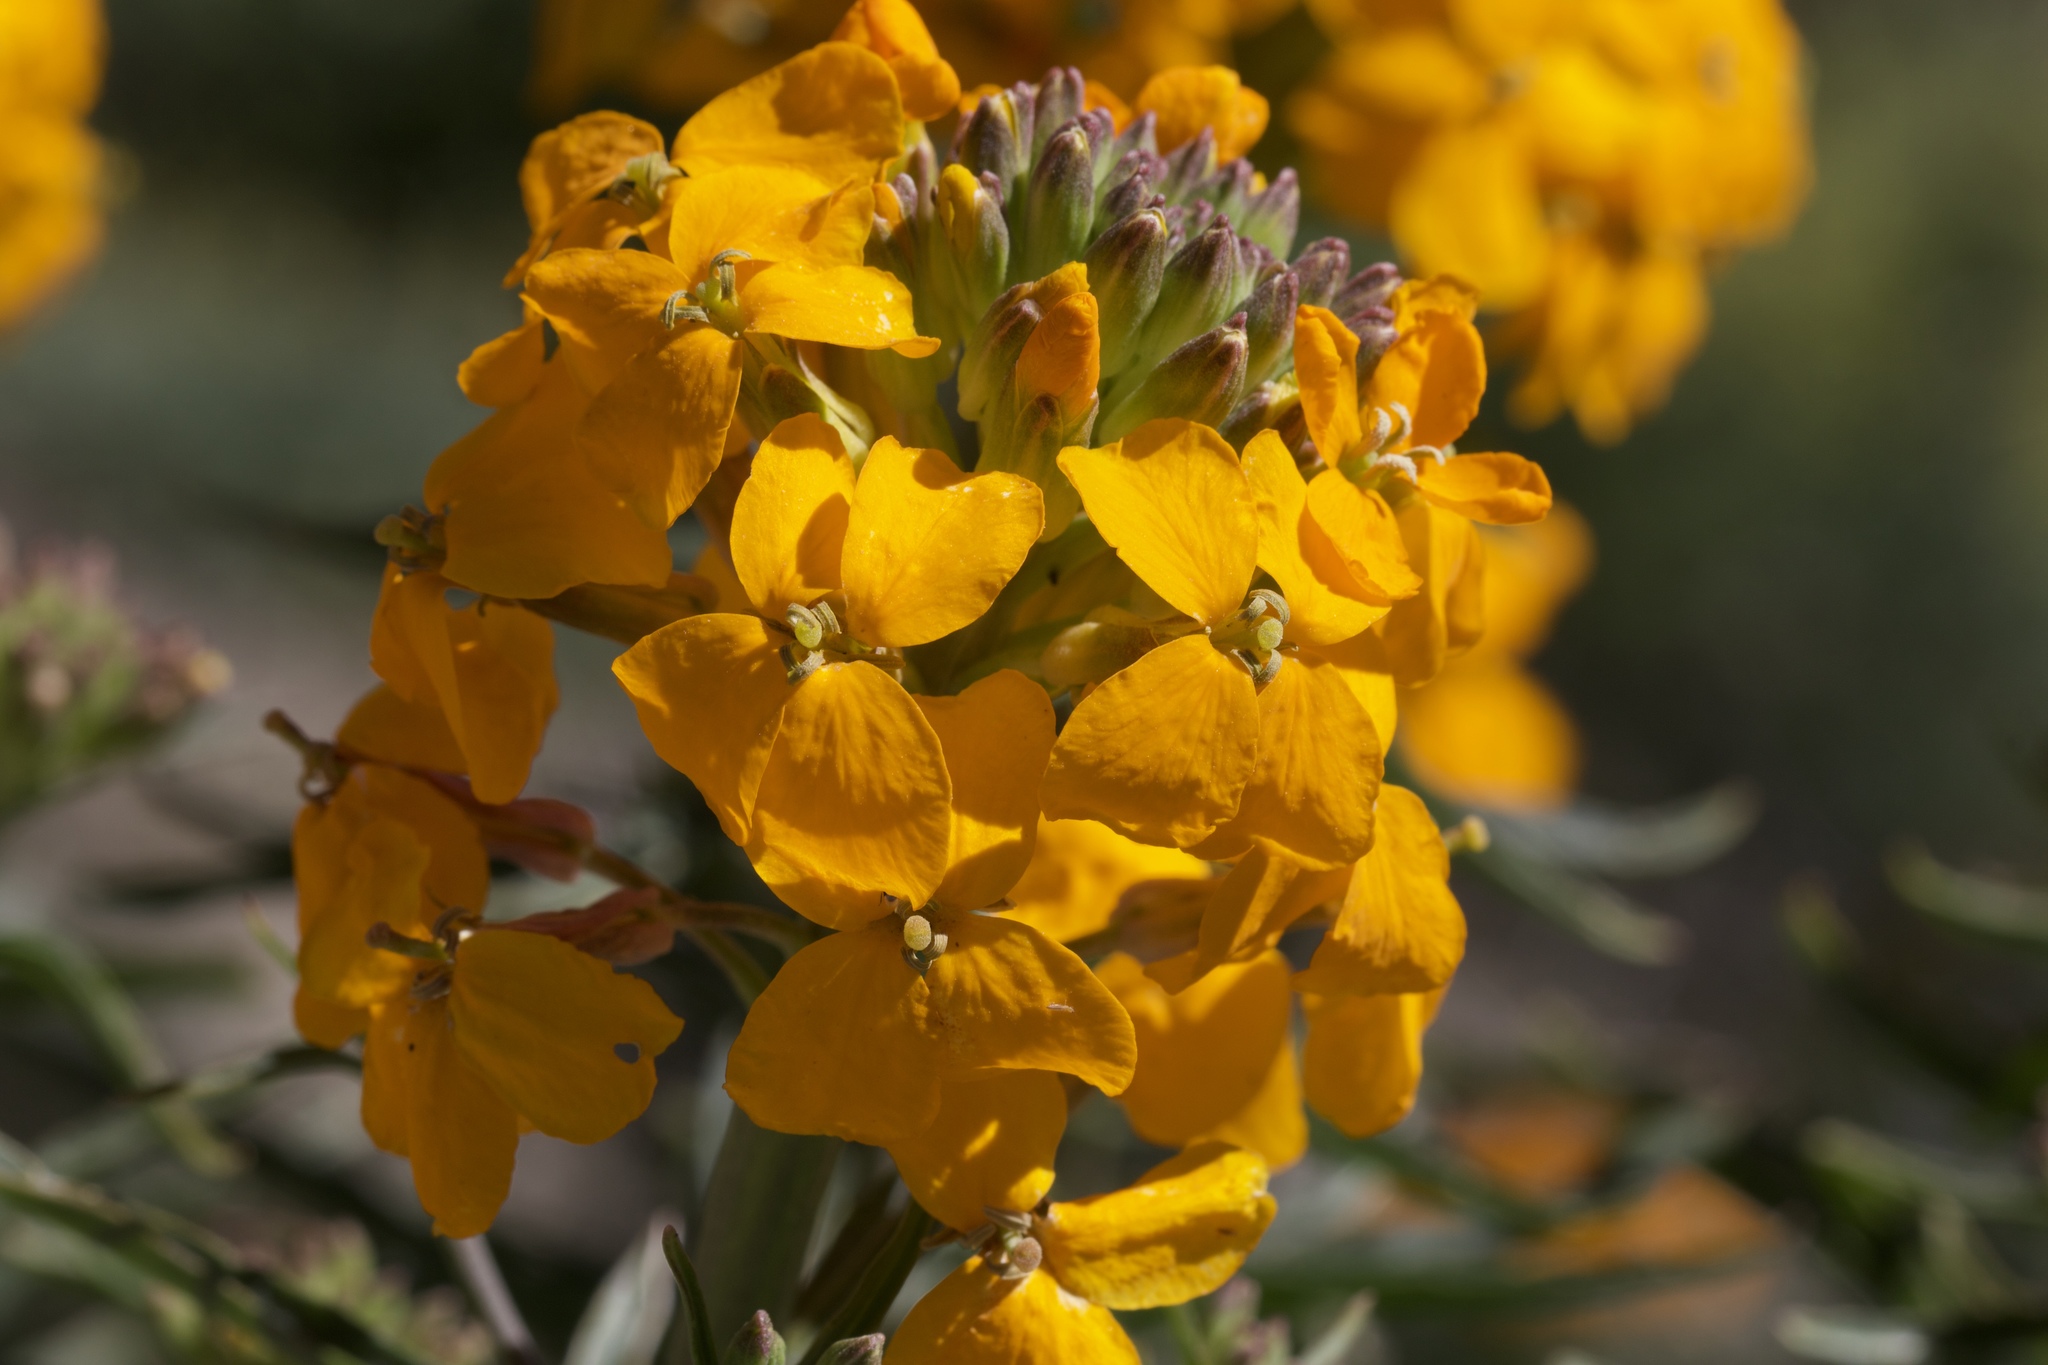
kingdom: Plantae
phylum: Tracheophyta
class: Magnoliopsida
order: Brassicales
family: Brassicaceae
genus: Erysimum
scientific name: Erysimum capitatum
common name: Western wallflower
